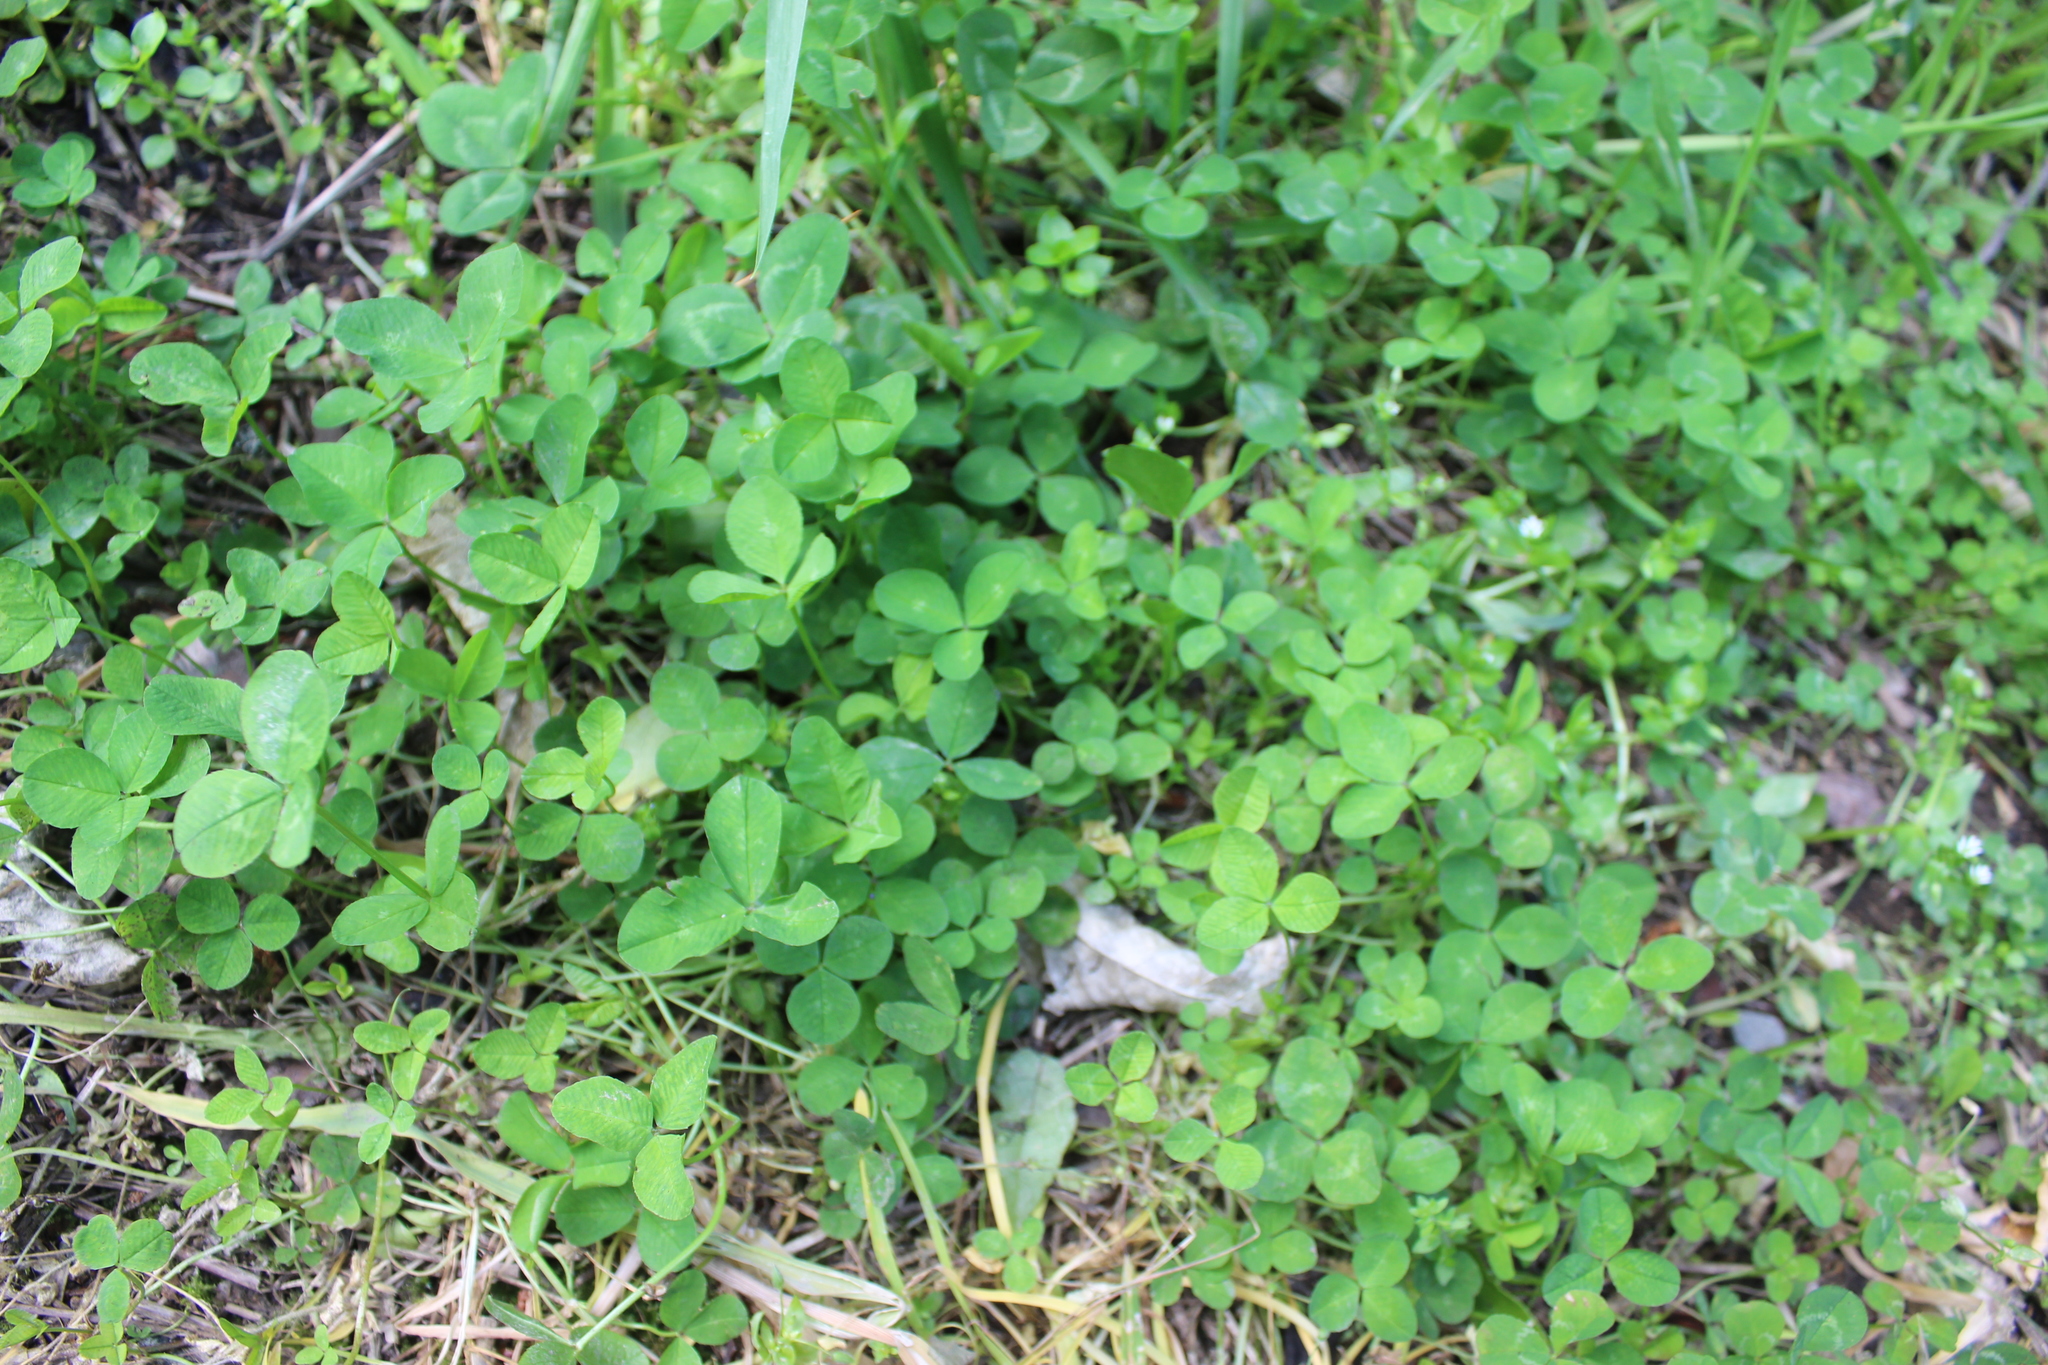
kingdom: Plantae
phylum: Tracheophyta
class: Magnoliopsida
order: Fabales
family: Fabaceae
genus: Trifolium
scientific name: Trifolium repens
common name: White clover
